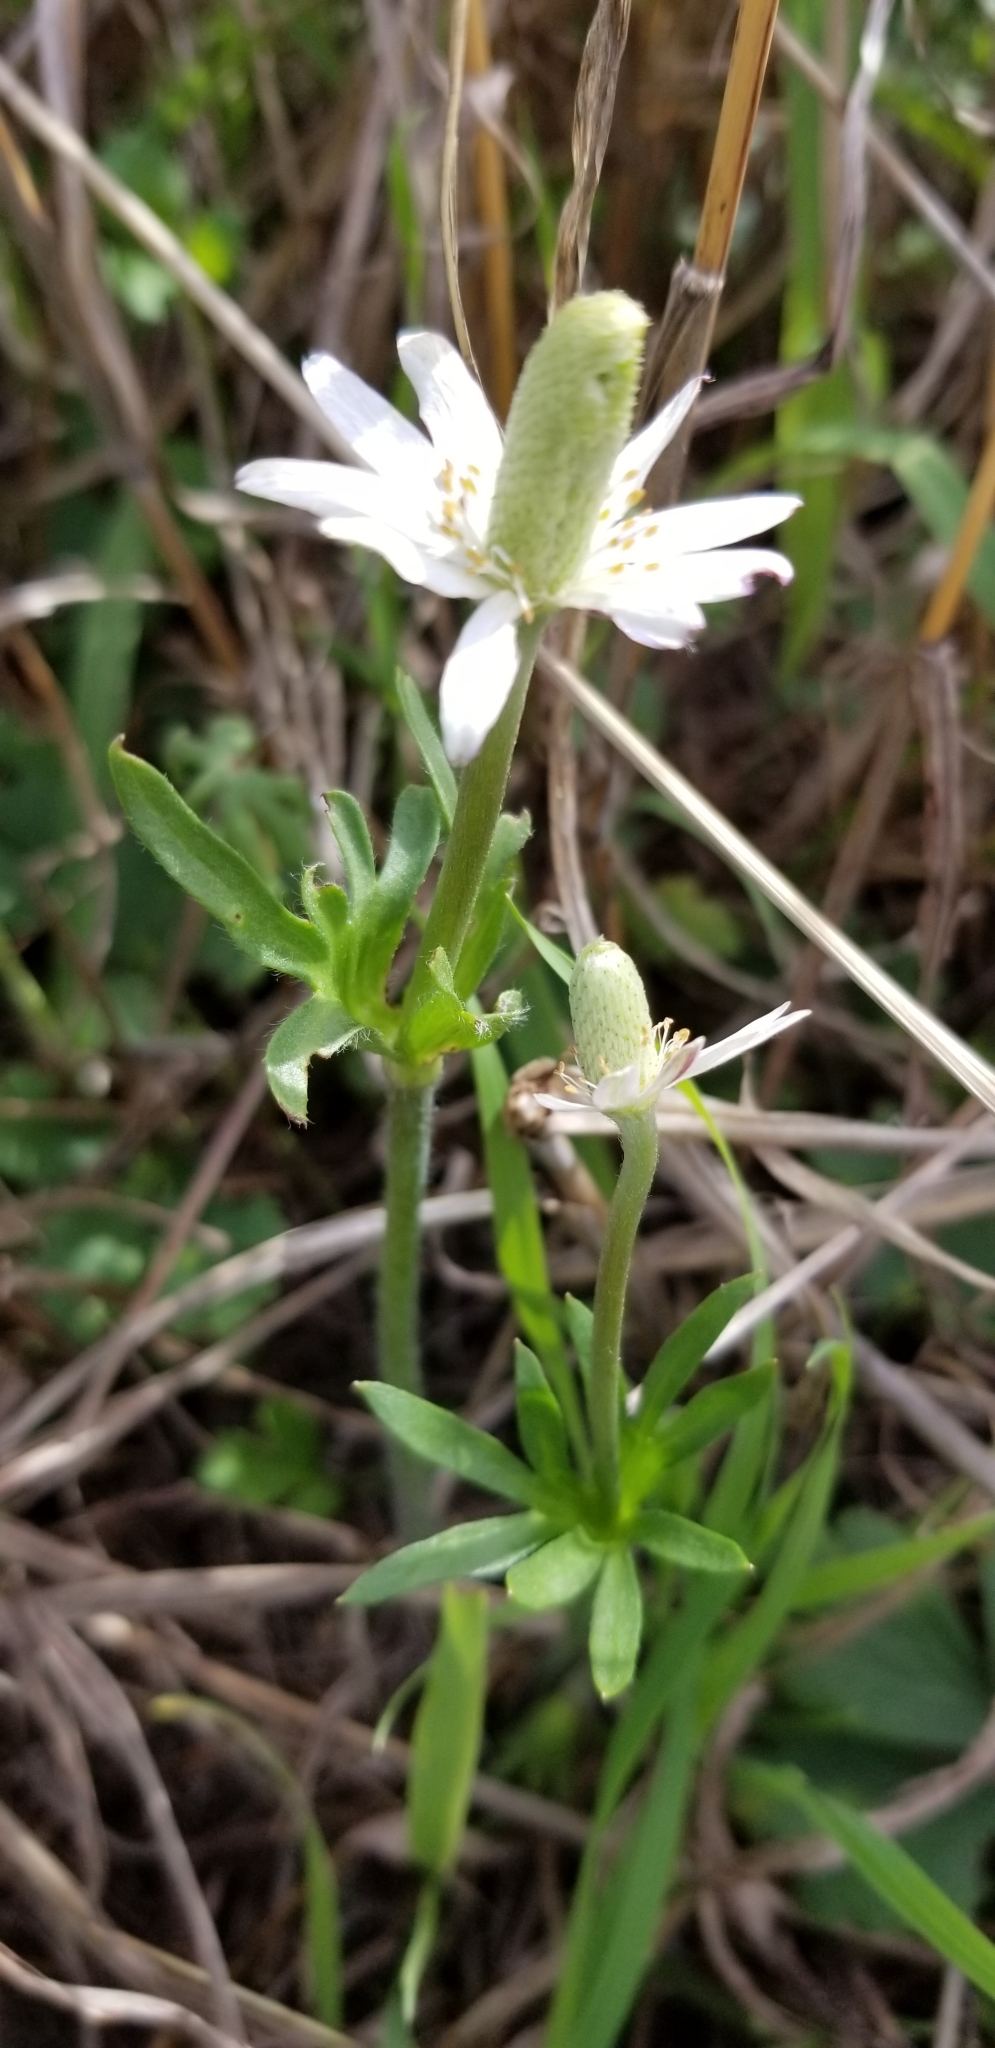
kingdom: Plantae
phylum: Tracheophyta
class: Magnoliopsida
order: Ranunculales
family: Ranunculaceae
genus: Anemone
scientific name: Anemone berlandieri
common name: Ten-petal anemone
